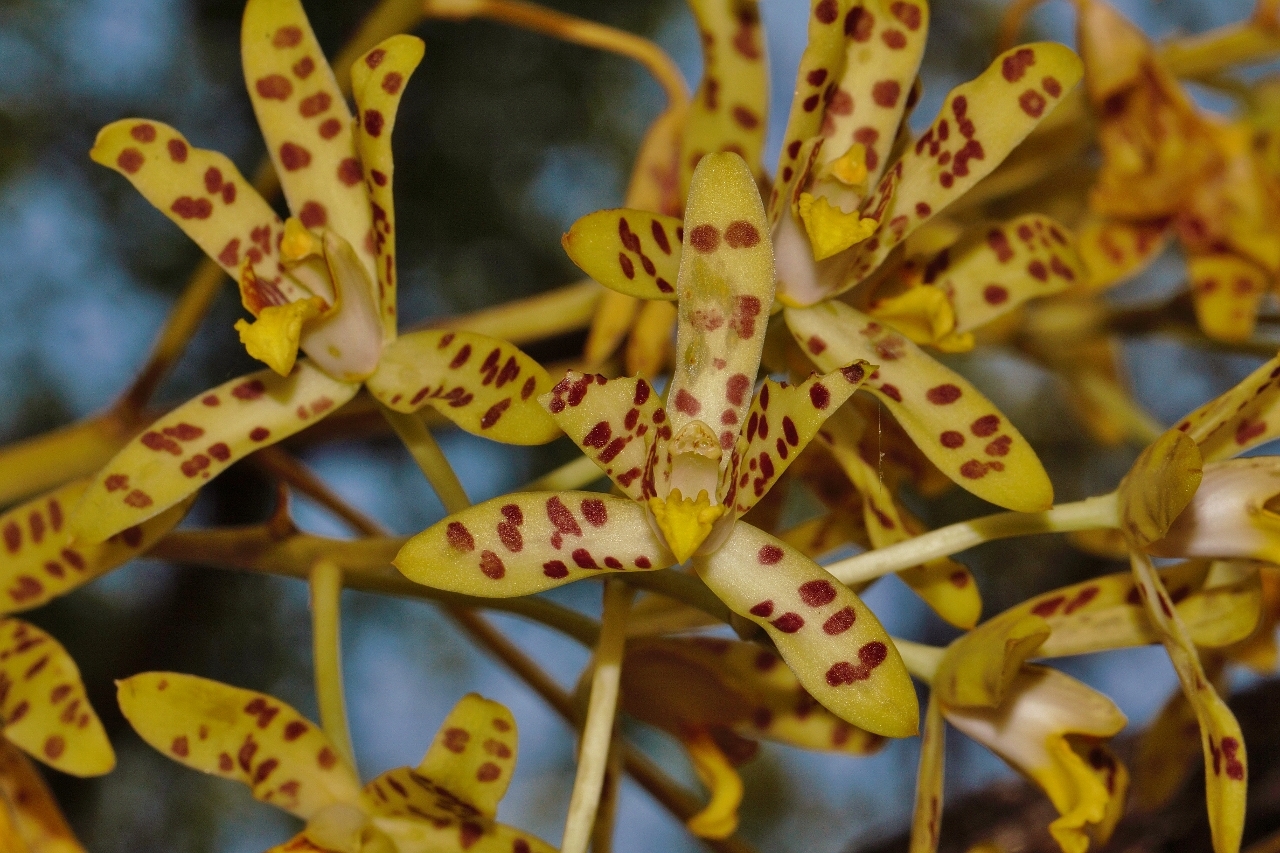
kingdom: Plantae
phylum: Tracheophyta
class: Liliopsida
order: Asparagales
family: Orchidaceae
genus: Ansellia
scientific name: Ansellia africana
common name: African ansellia
